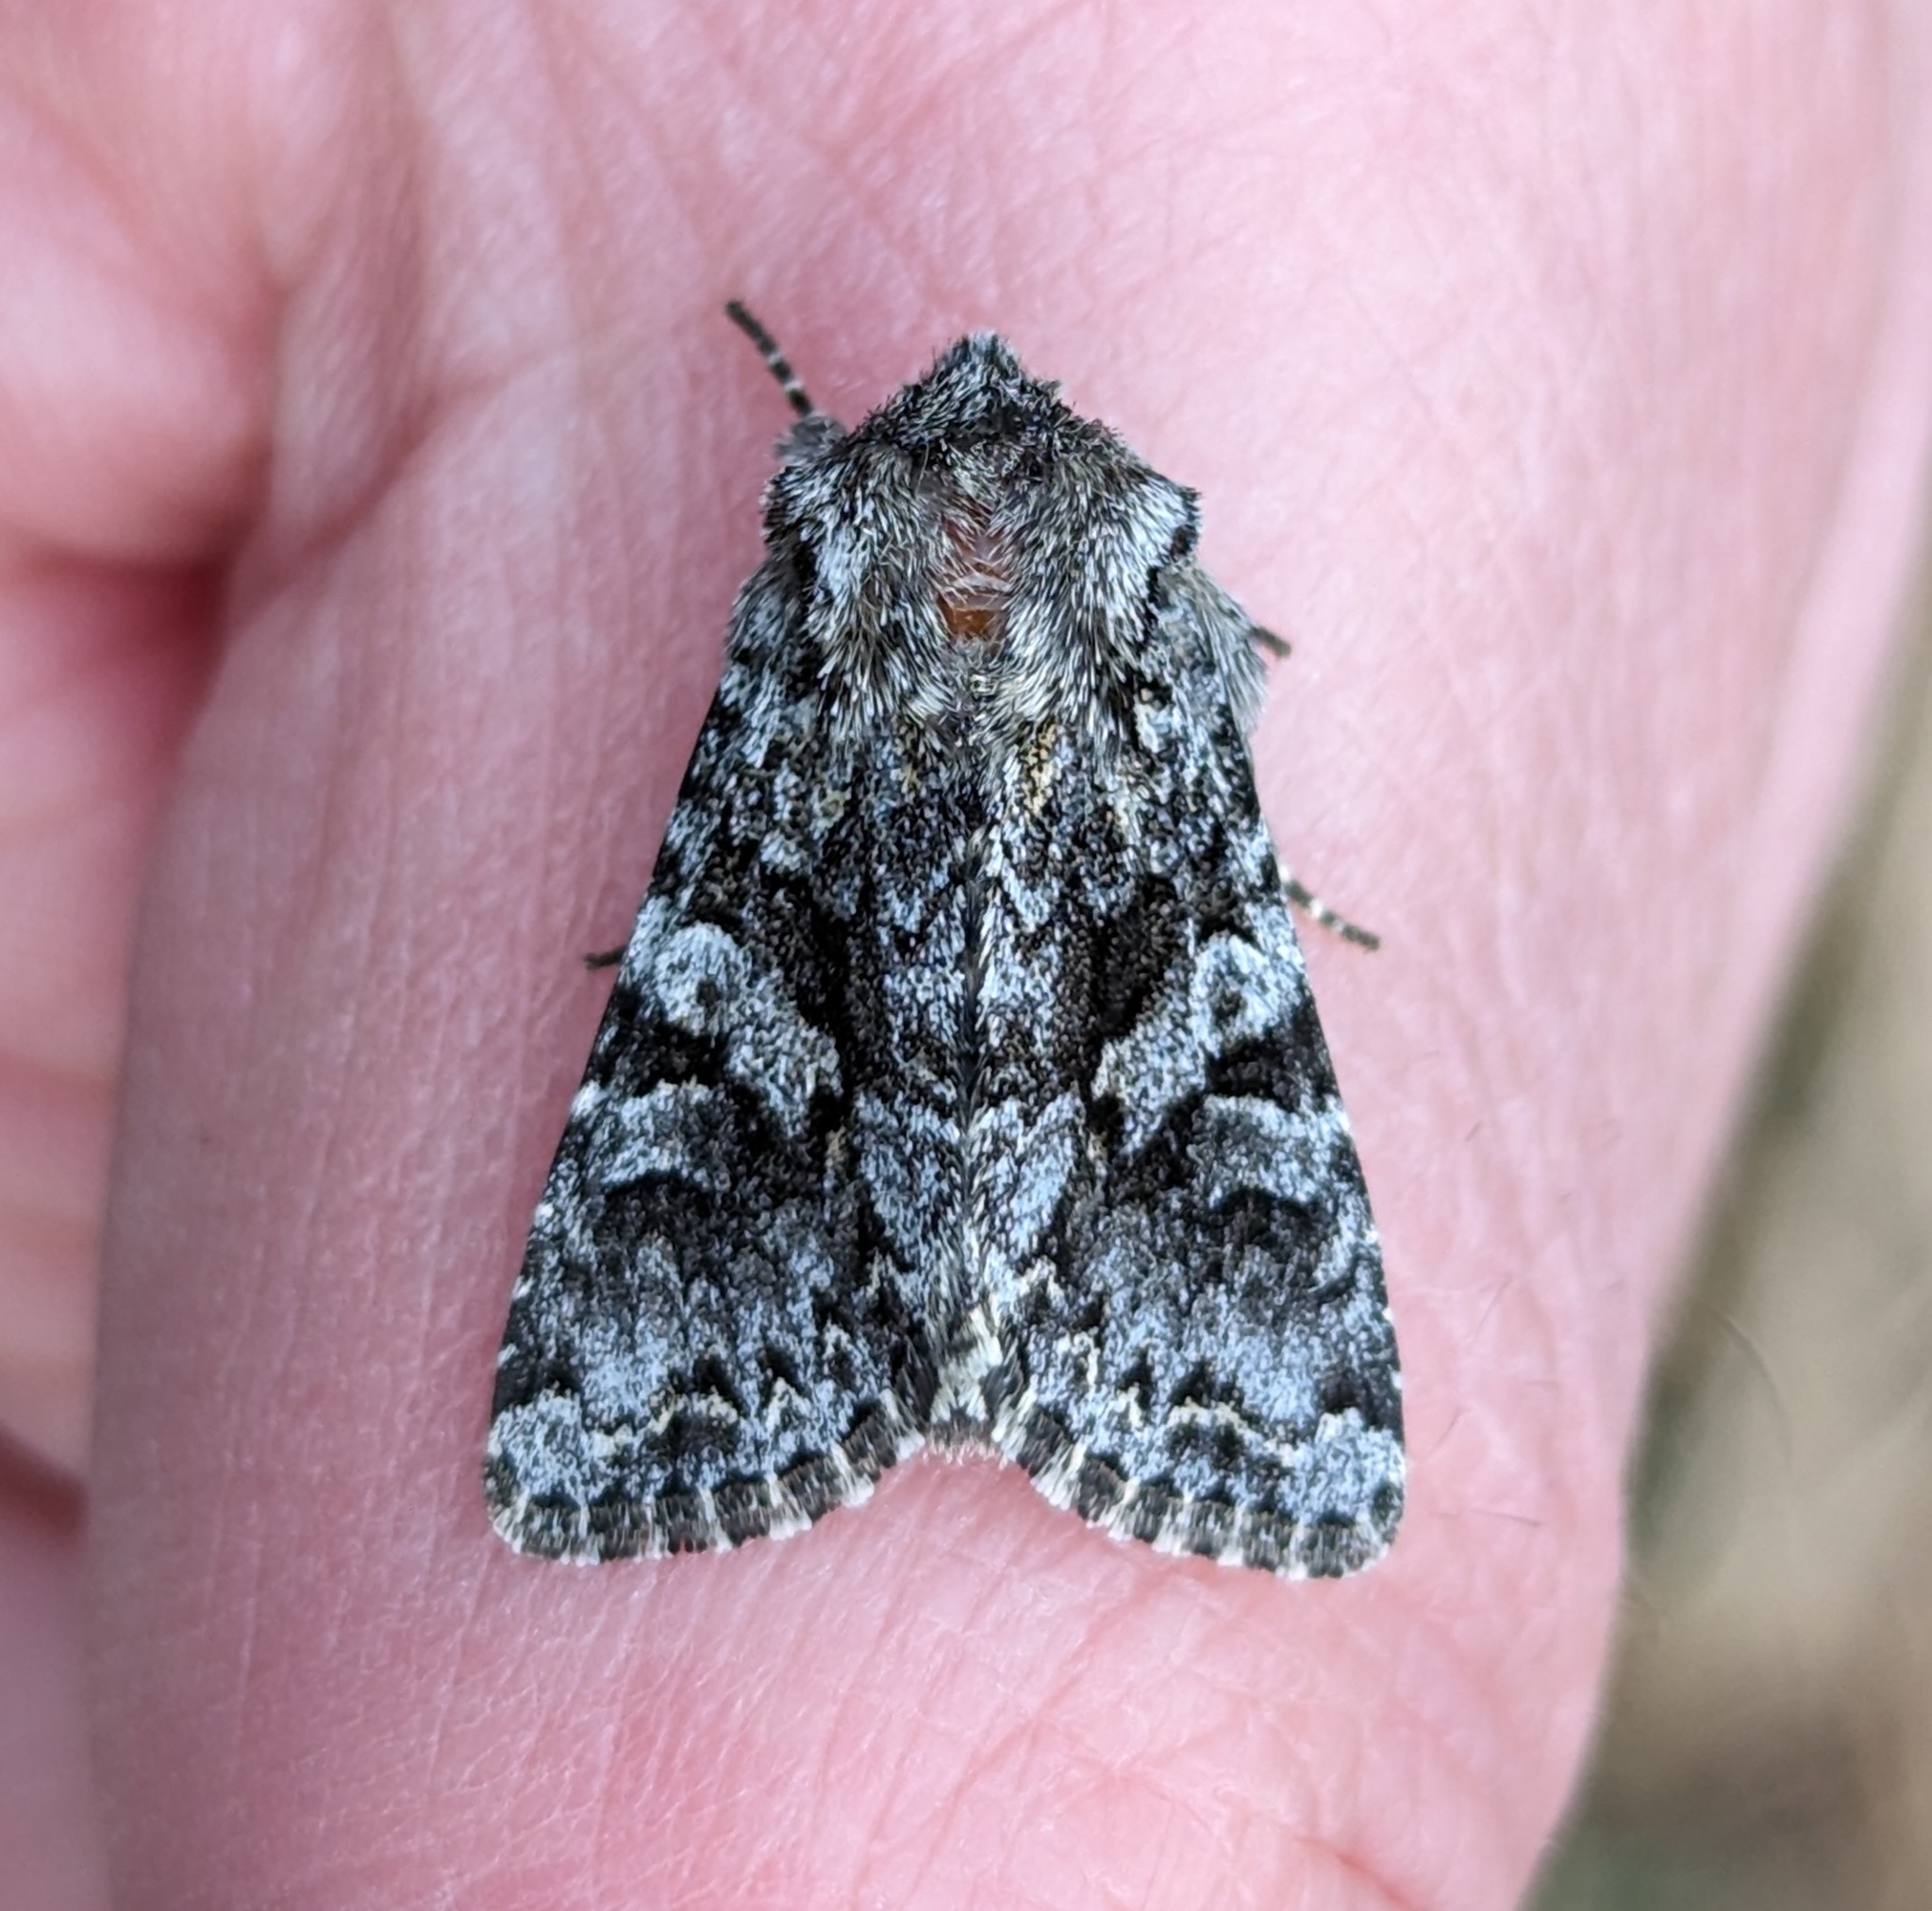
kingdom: Animalia
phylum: Arthropoda
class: Insecta
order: Lepidoptera
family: Noctuidae
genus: Hada
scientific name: Hada sutrina
